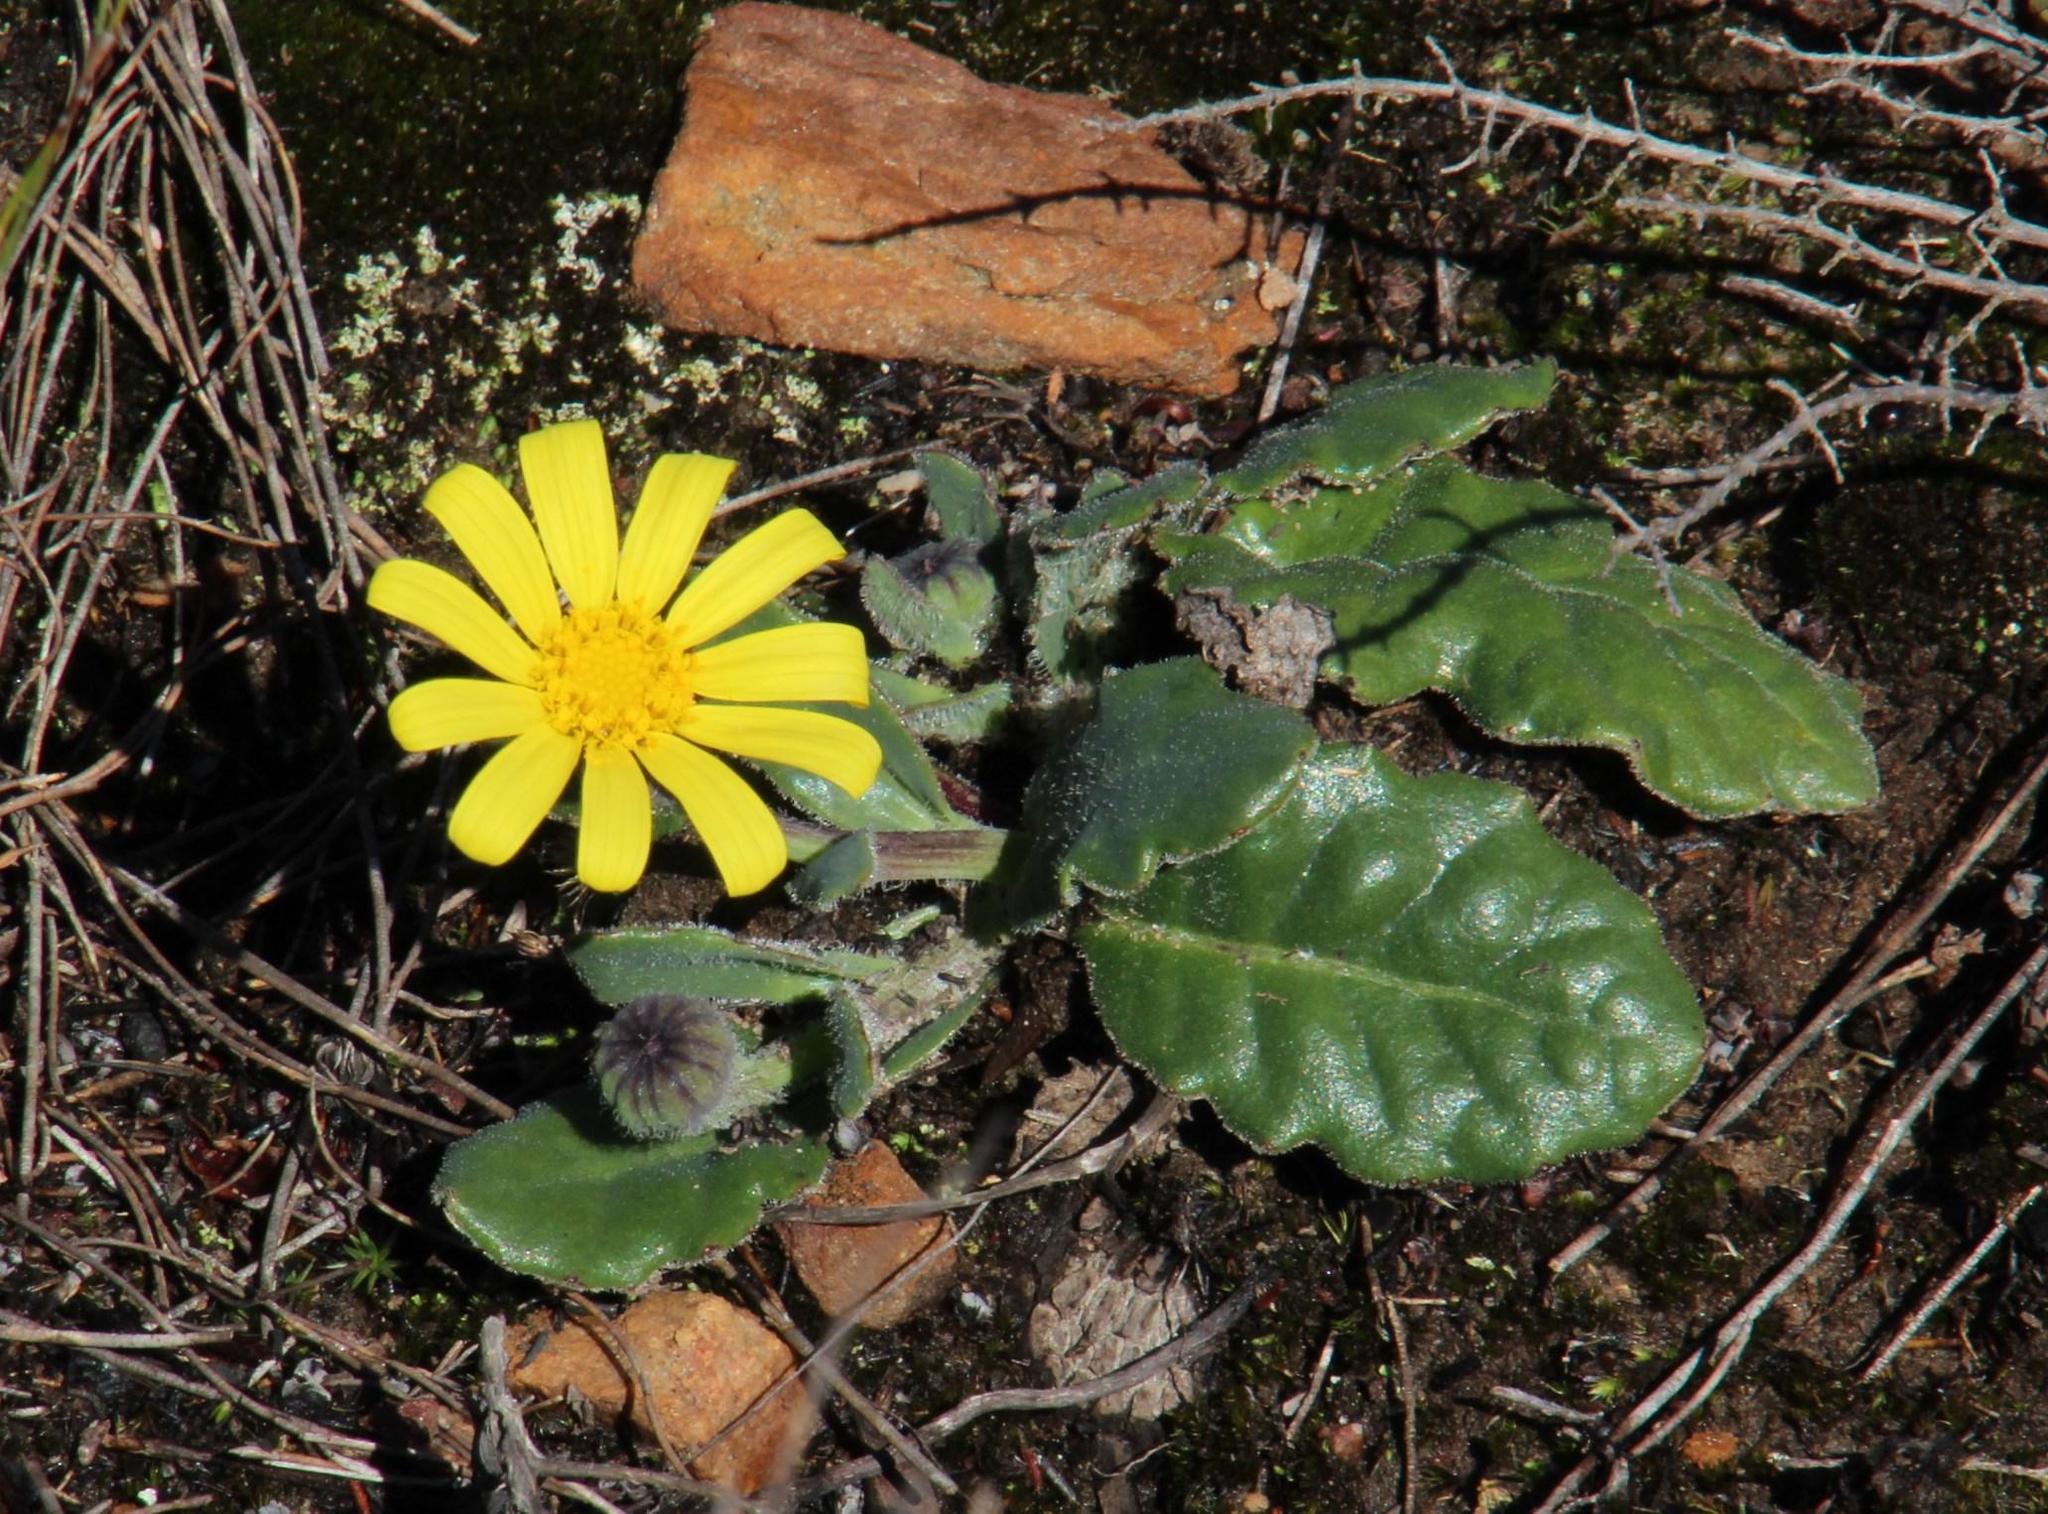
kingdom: Plantae
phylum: Tracheophyta
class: Magnoliopsida
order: Asterales
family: Asteraceae
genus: Othonna
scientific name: Othonna heterophylla
